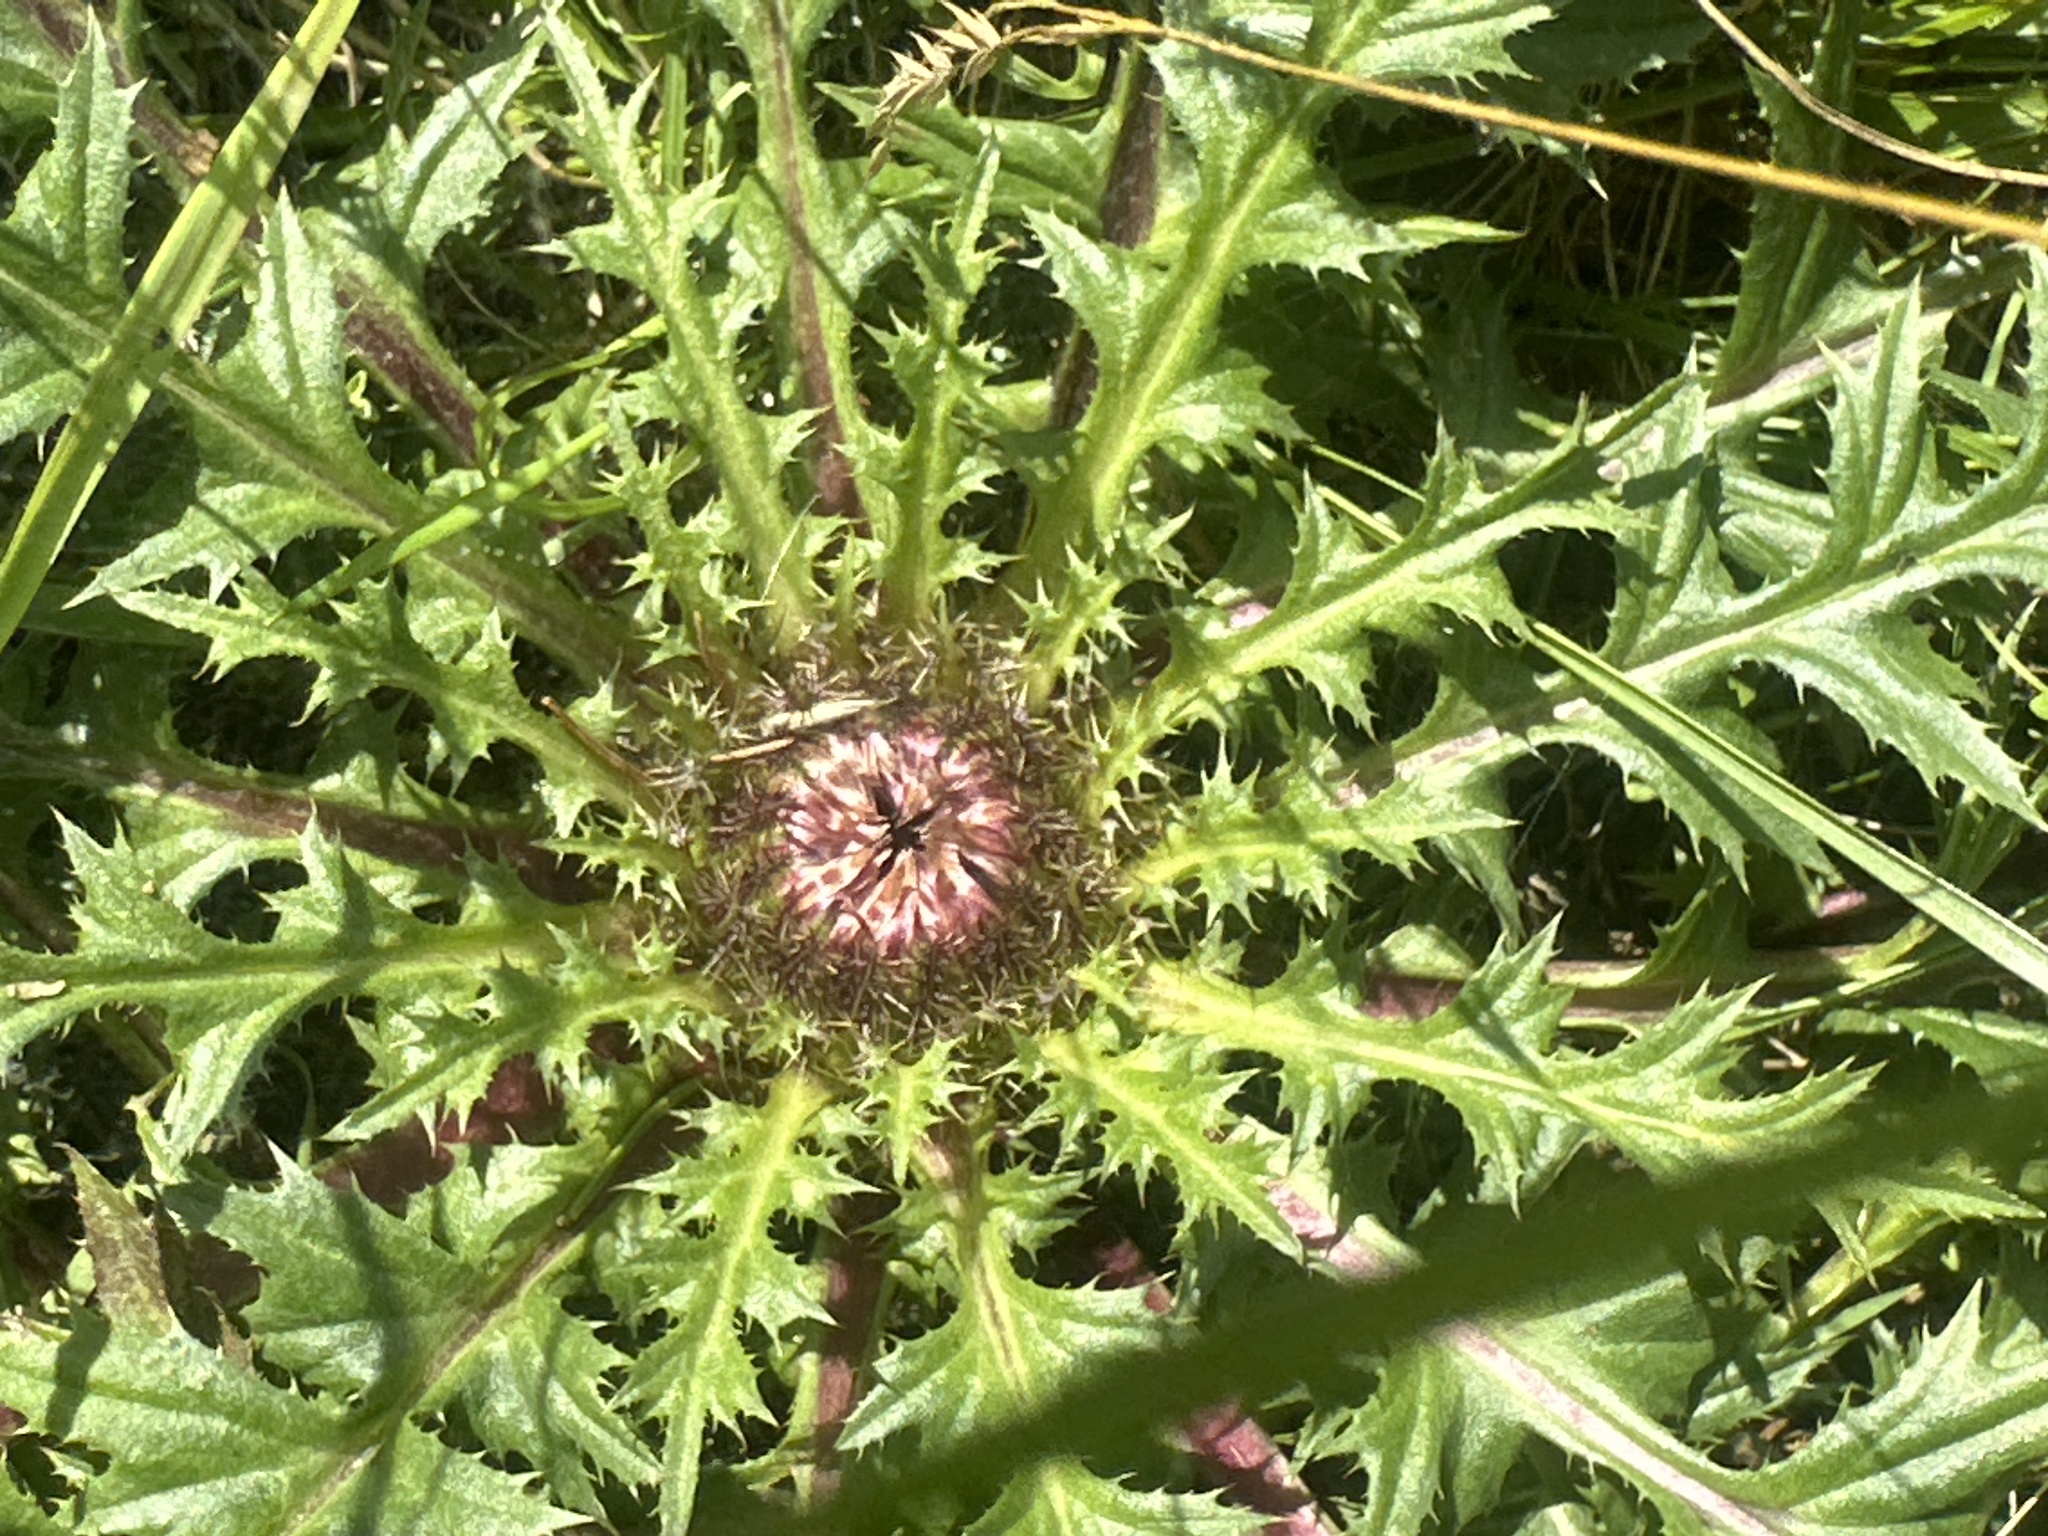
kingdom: Plantae
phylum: Tracheophyta
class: Magnoliopsida
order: Asterales
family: Asteraceae
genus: Carlina
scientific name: Carlina acaulis
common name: Stemless carline thistle
